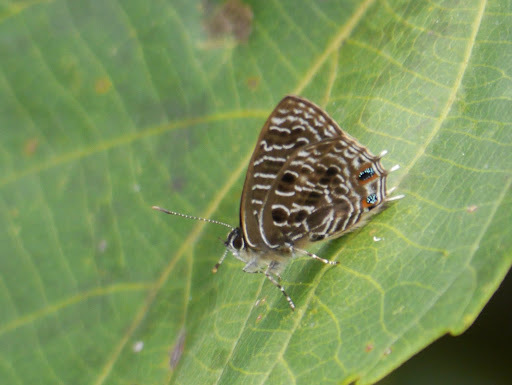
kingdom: Animalia
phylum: Arthropoda
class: Insecta
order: Lepidoptera
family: Lycaenidae
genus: Anthene
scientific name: Anthene larydas
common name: Forest hairtail
